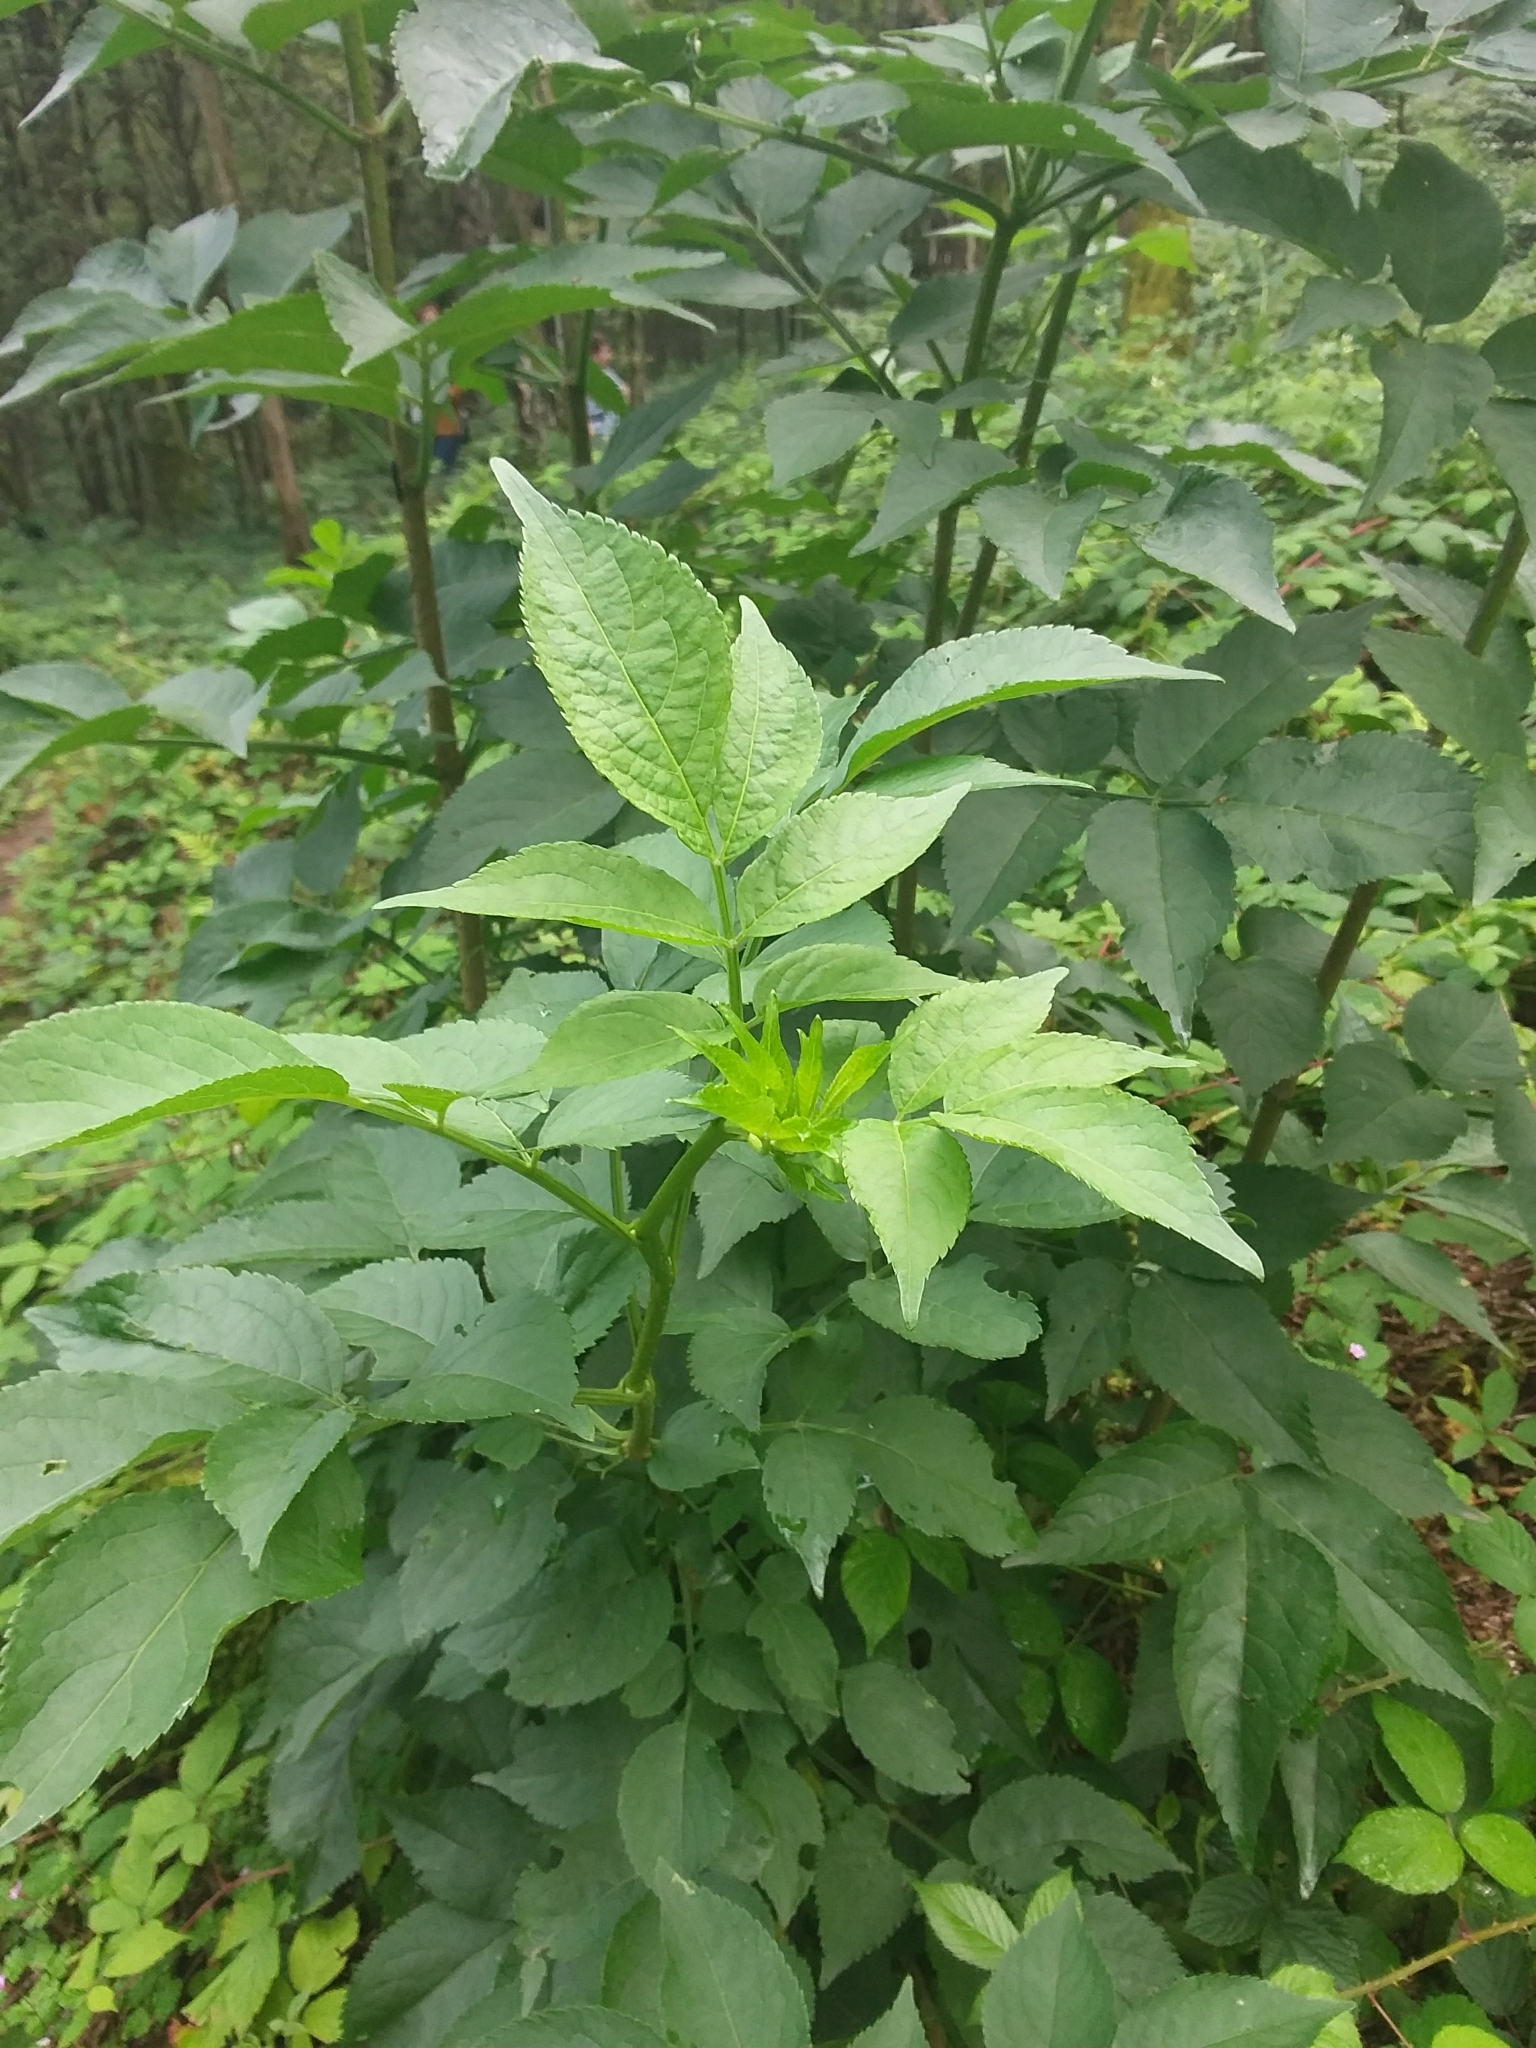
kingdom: Plantae
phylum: Tracheophyta
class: Magnoliopsida
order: Dipsacales
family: Viburnaceae
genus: Sambucus
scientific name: Sambucus nigra
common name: Elder
